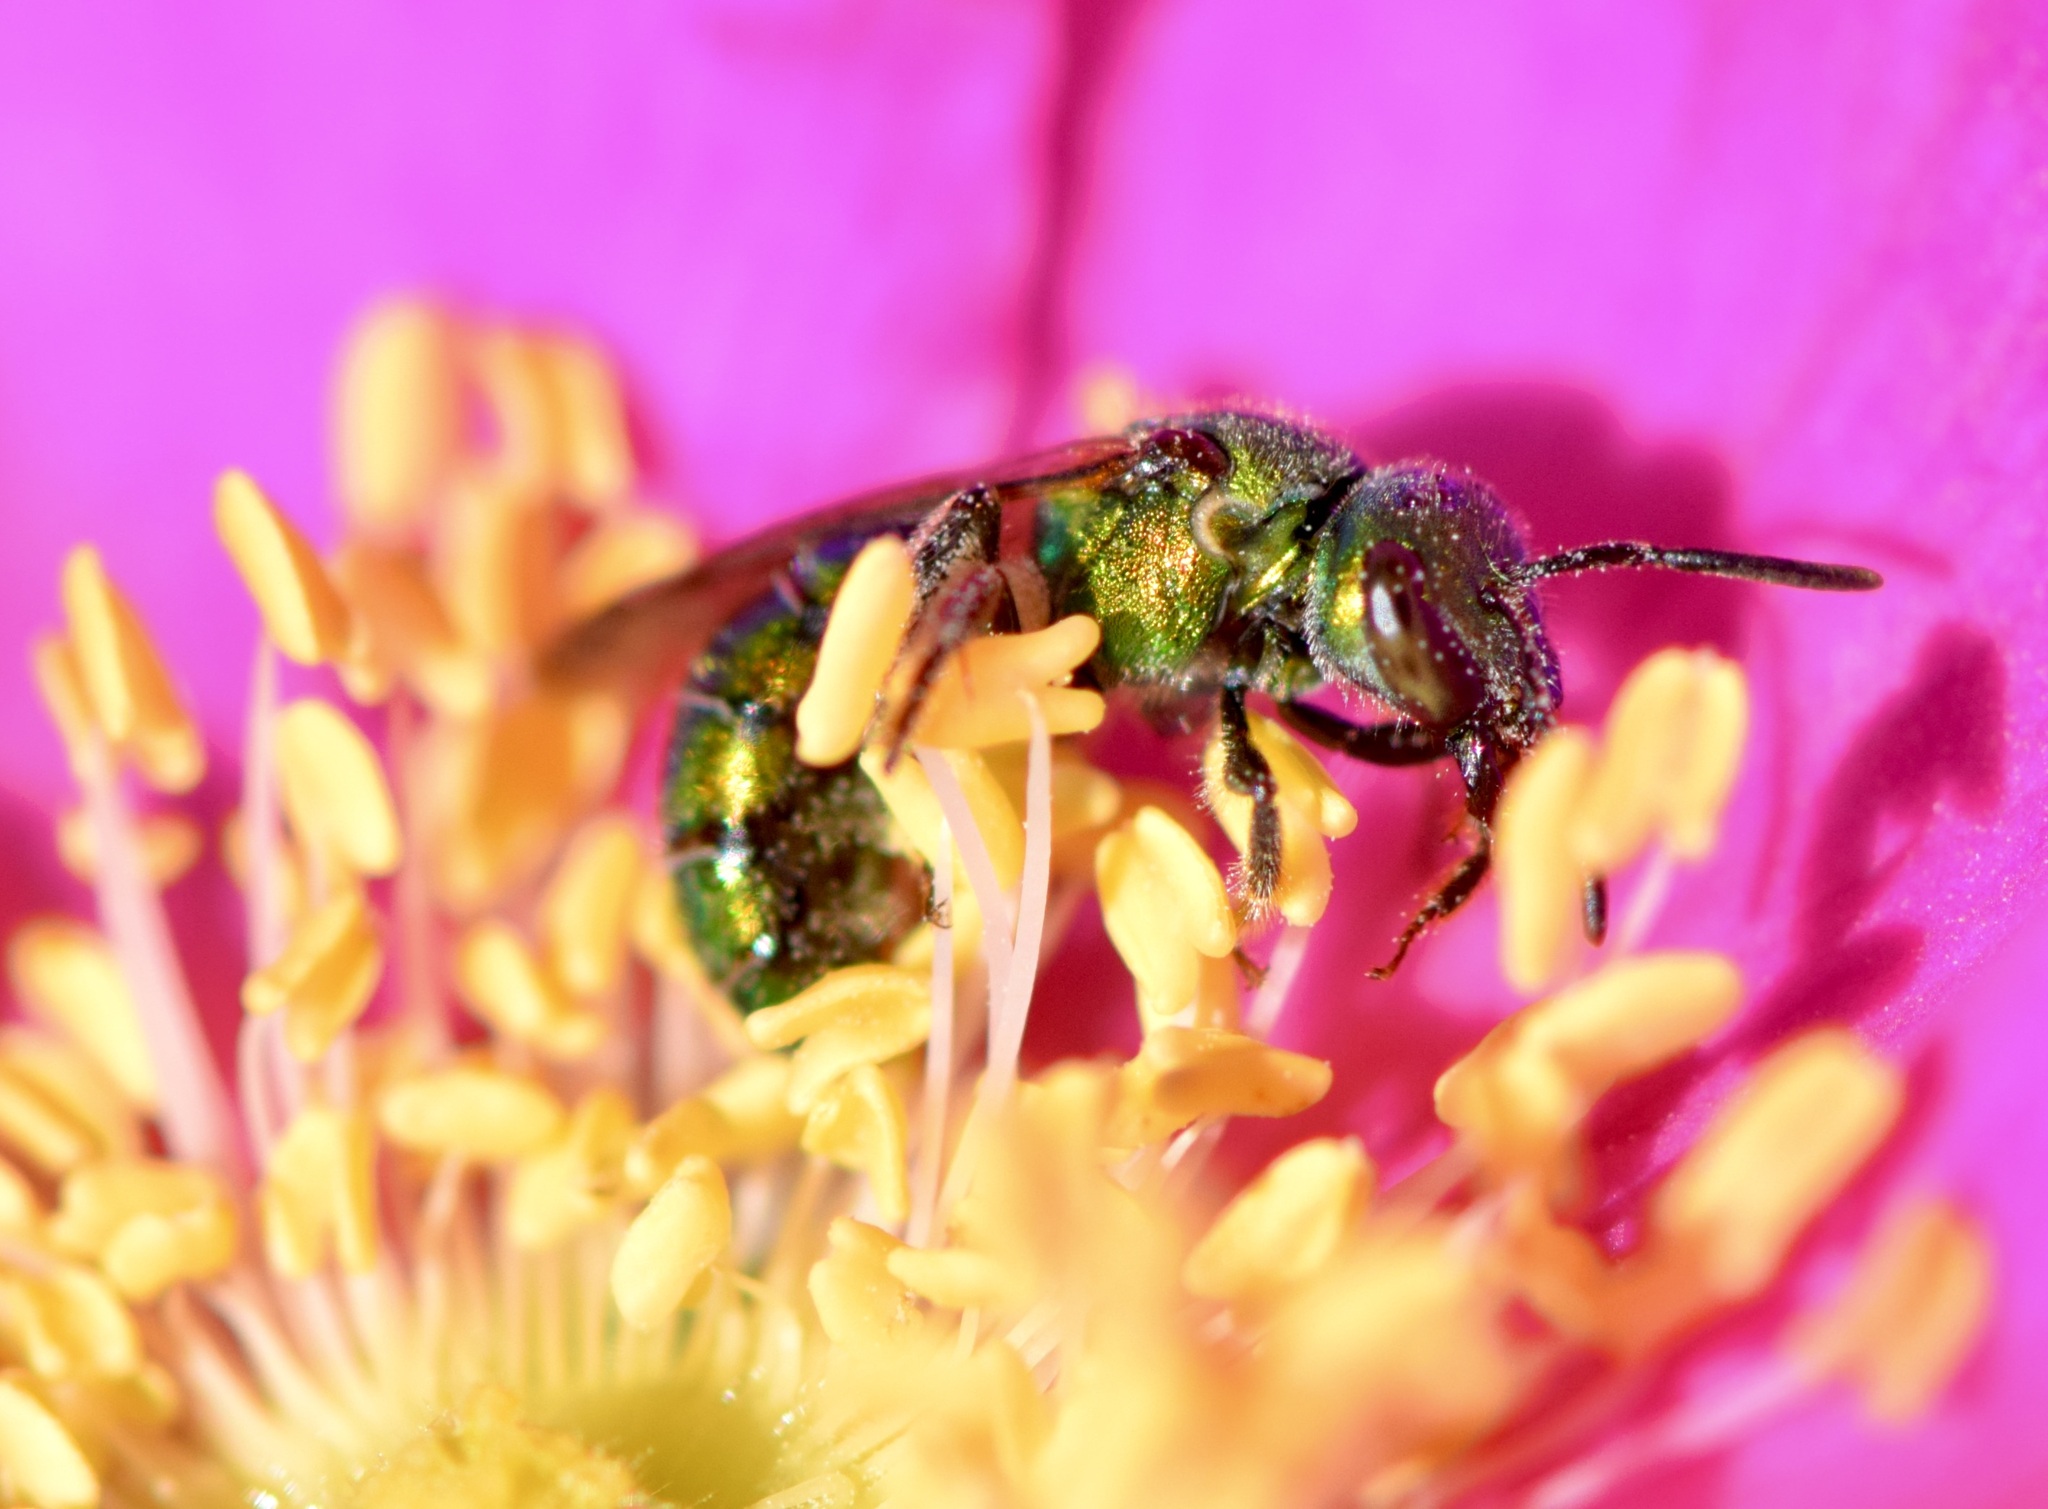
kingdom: Animalia
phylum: Arthropoda
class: Insecta
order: Hymenoptera
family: Halictidae
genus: Augochlora
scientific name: Augochlora pura
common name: Pure green sweat bee
